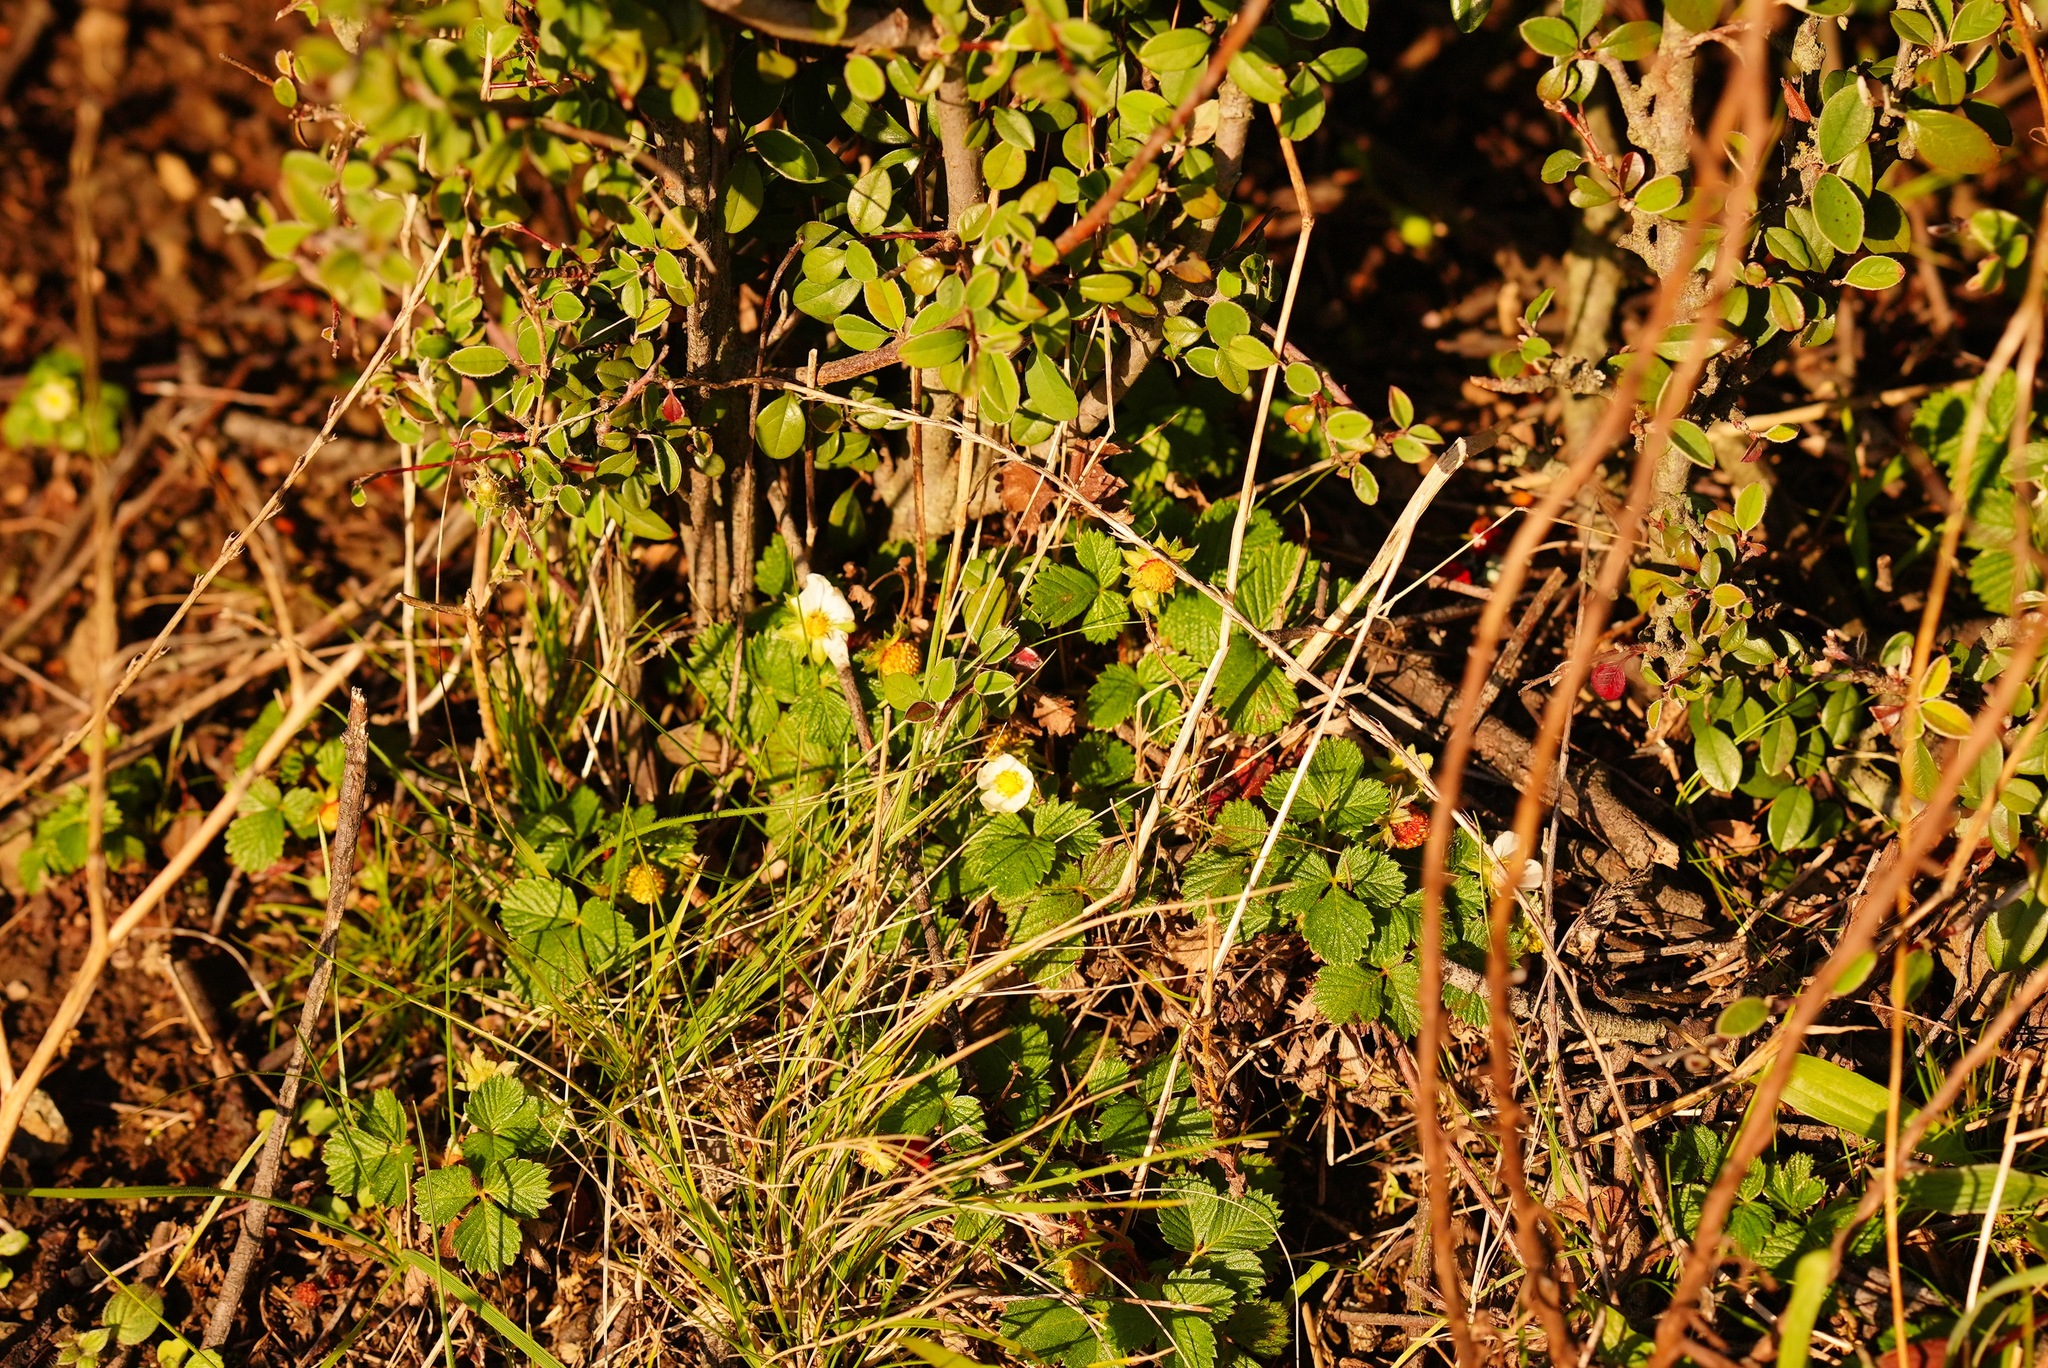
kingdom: Plantae
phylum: Tracheophyta
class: Magnoliopsida
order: Rosales
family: Rosaceae
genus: Fragaria
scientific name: Fragaria vesca
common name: Wild strawberry
